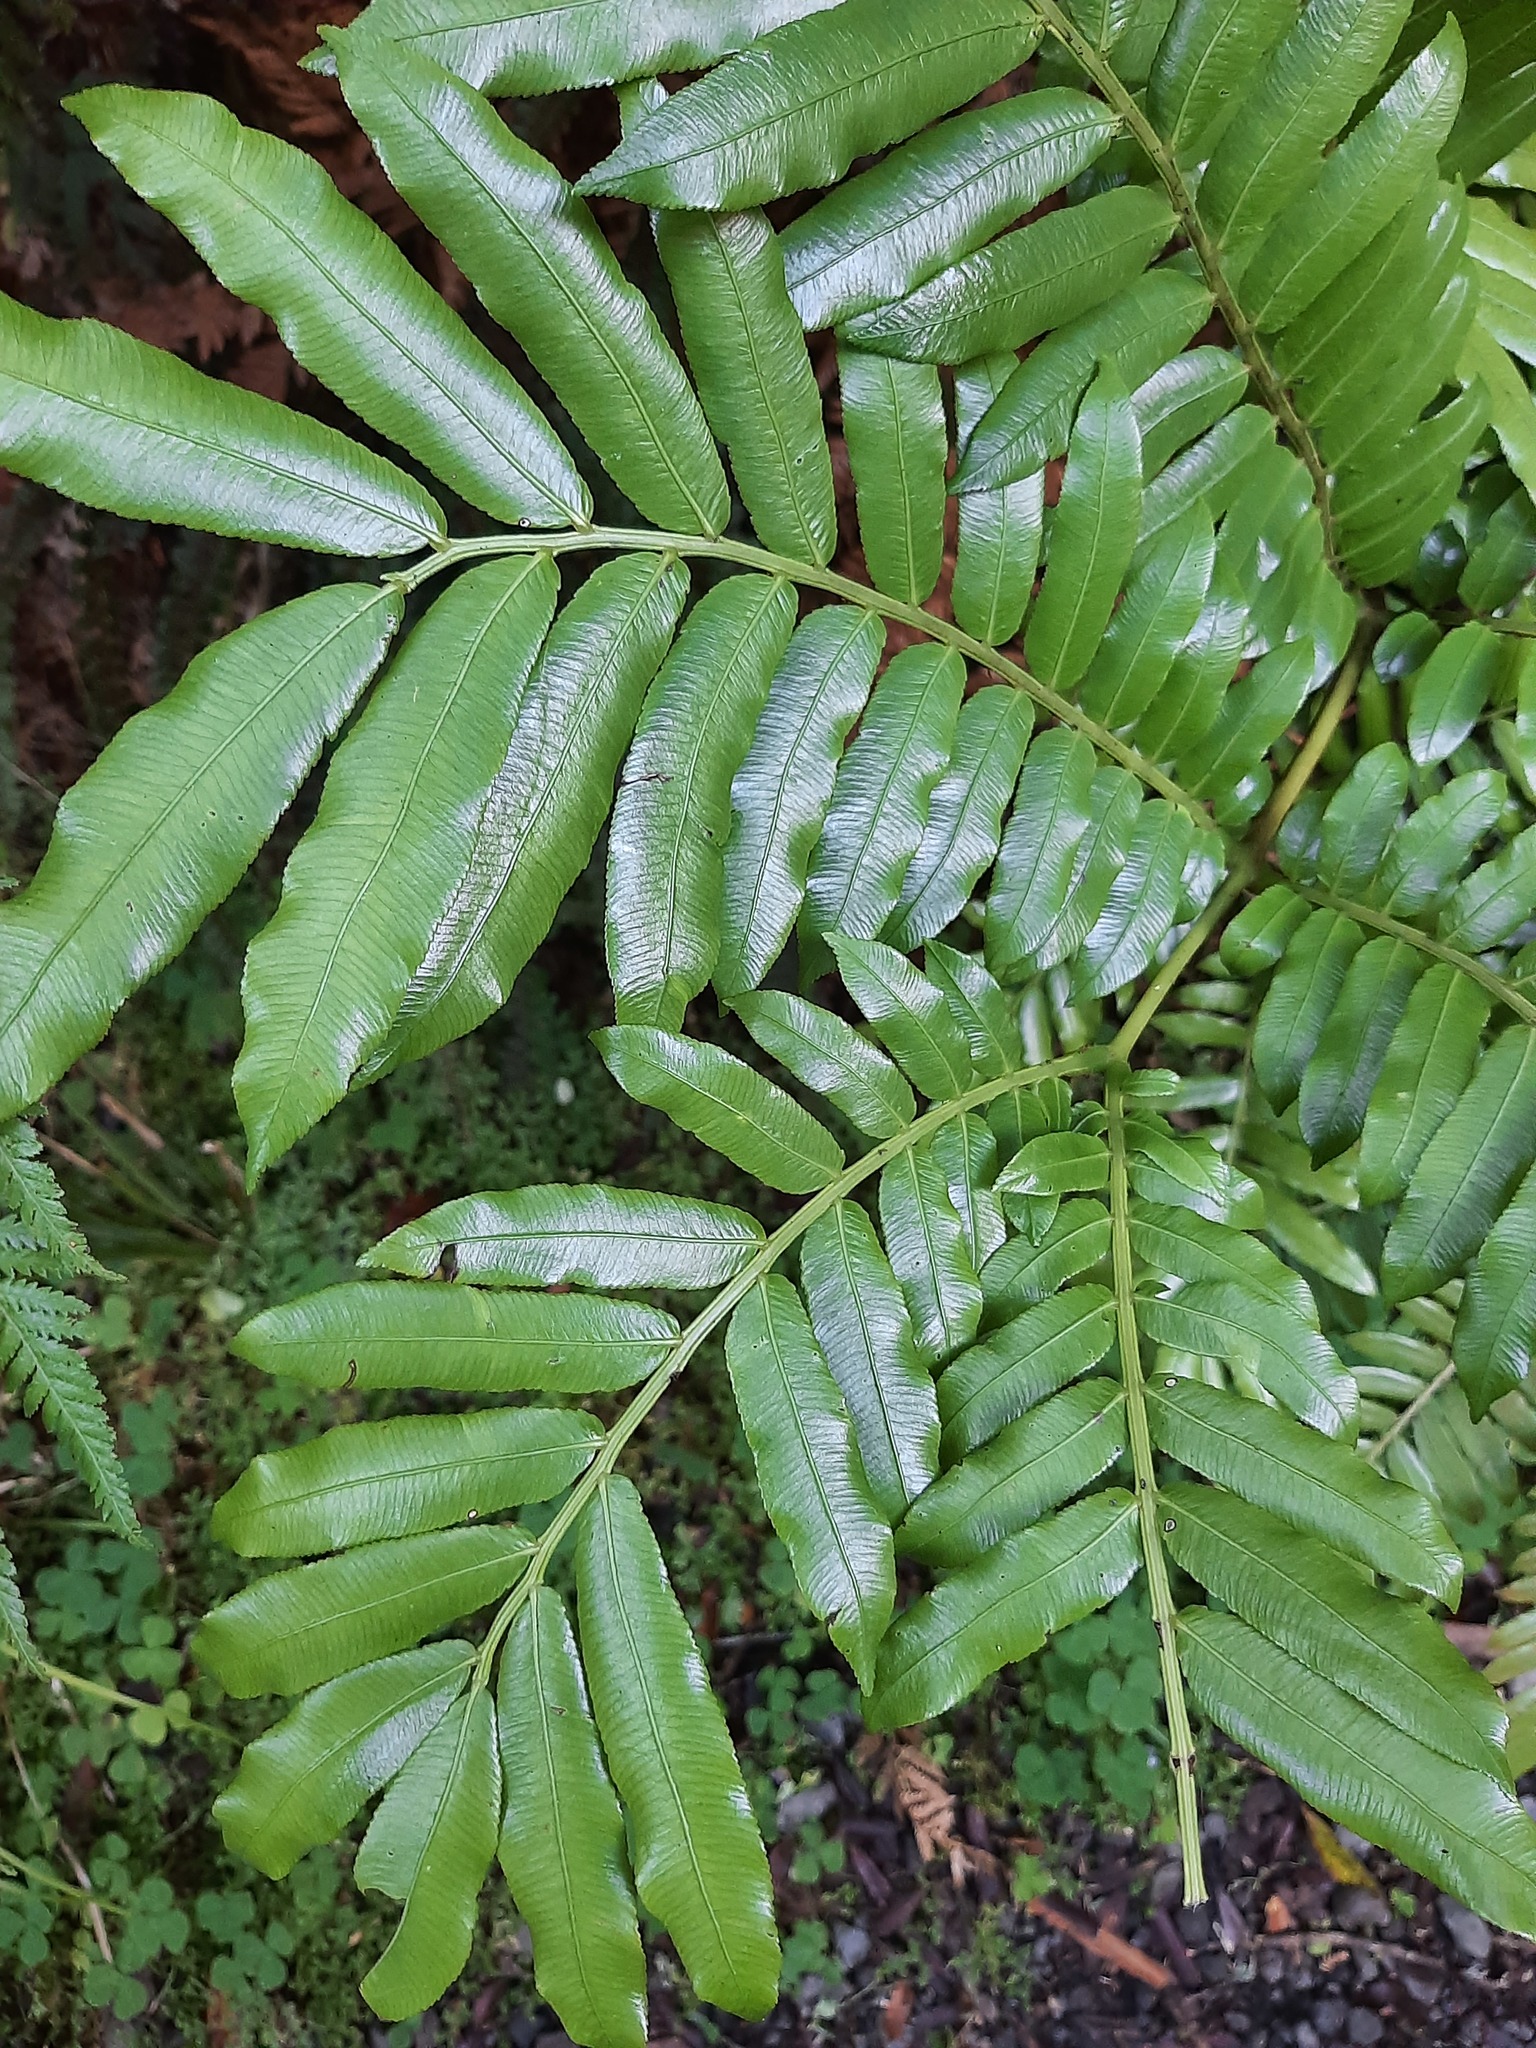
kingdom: Plantae
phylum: Tracheophyta
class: Polypodiopsida
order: Marattiales
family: Marattiaceae
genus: Ptisana
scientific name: Ptisana salicina
